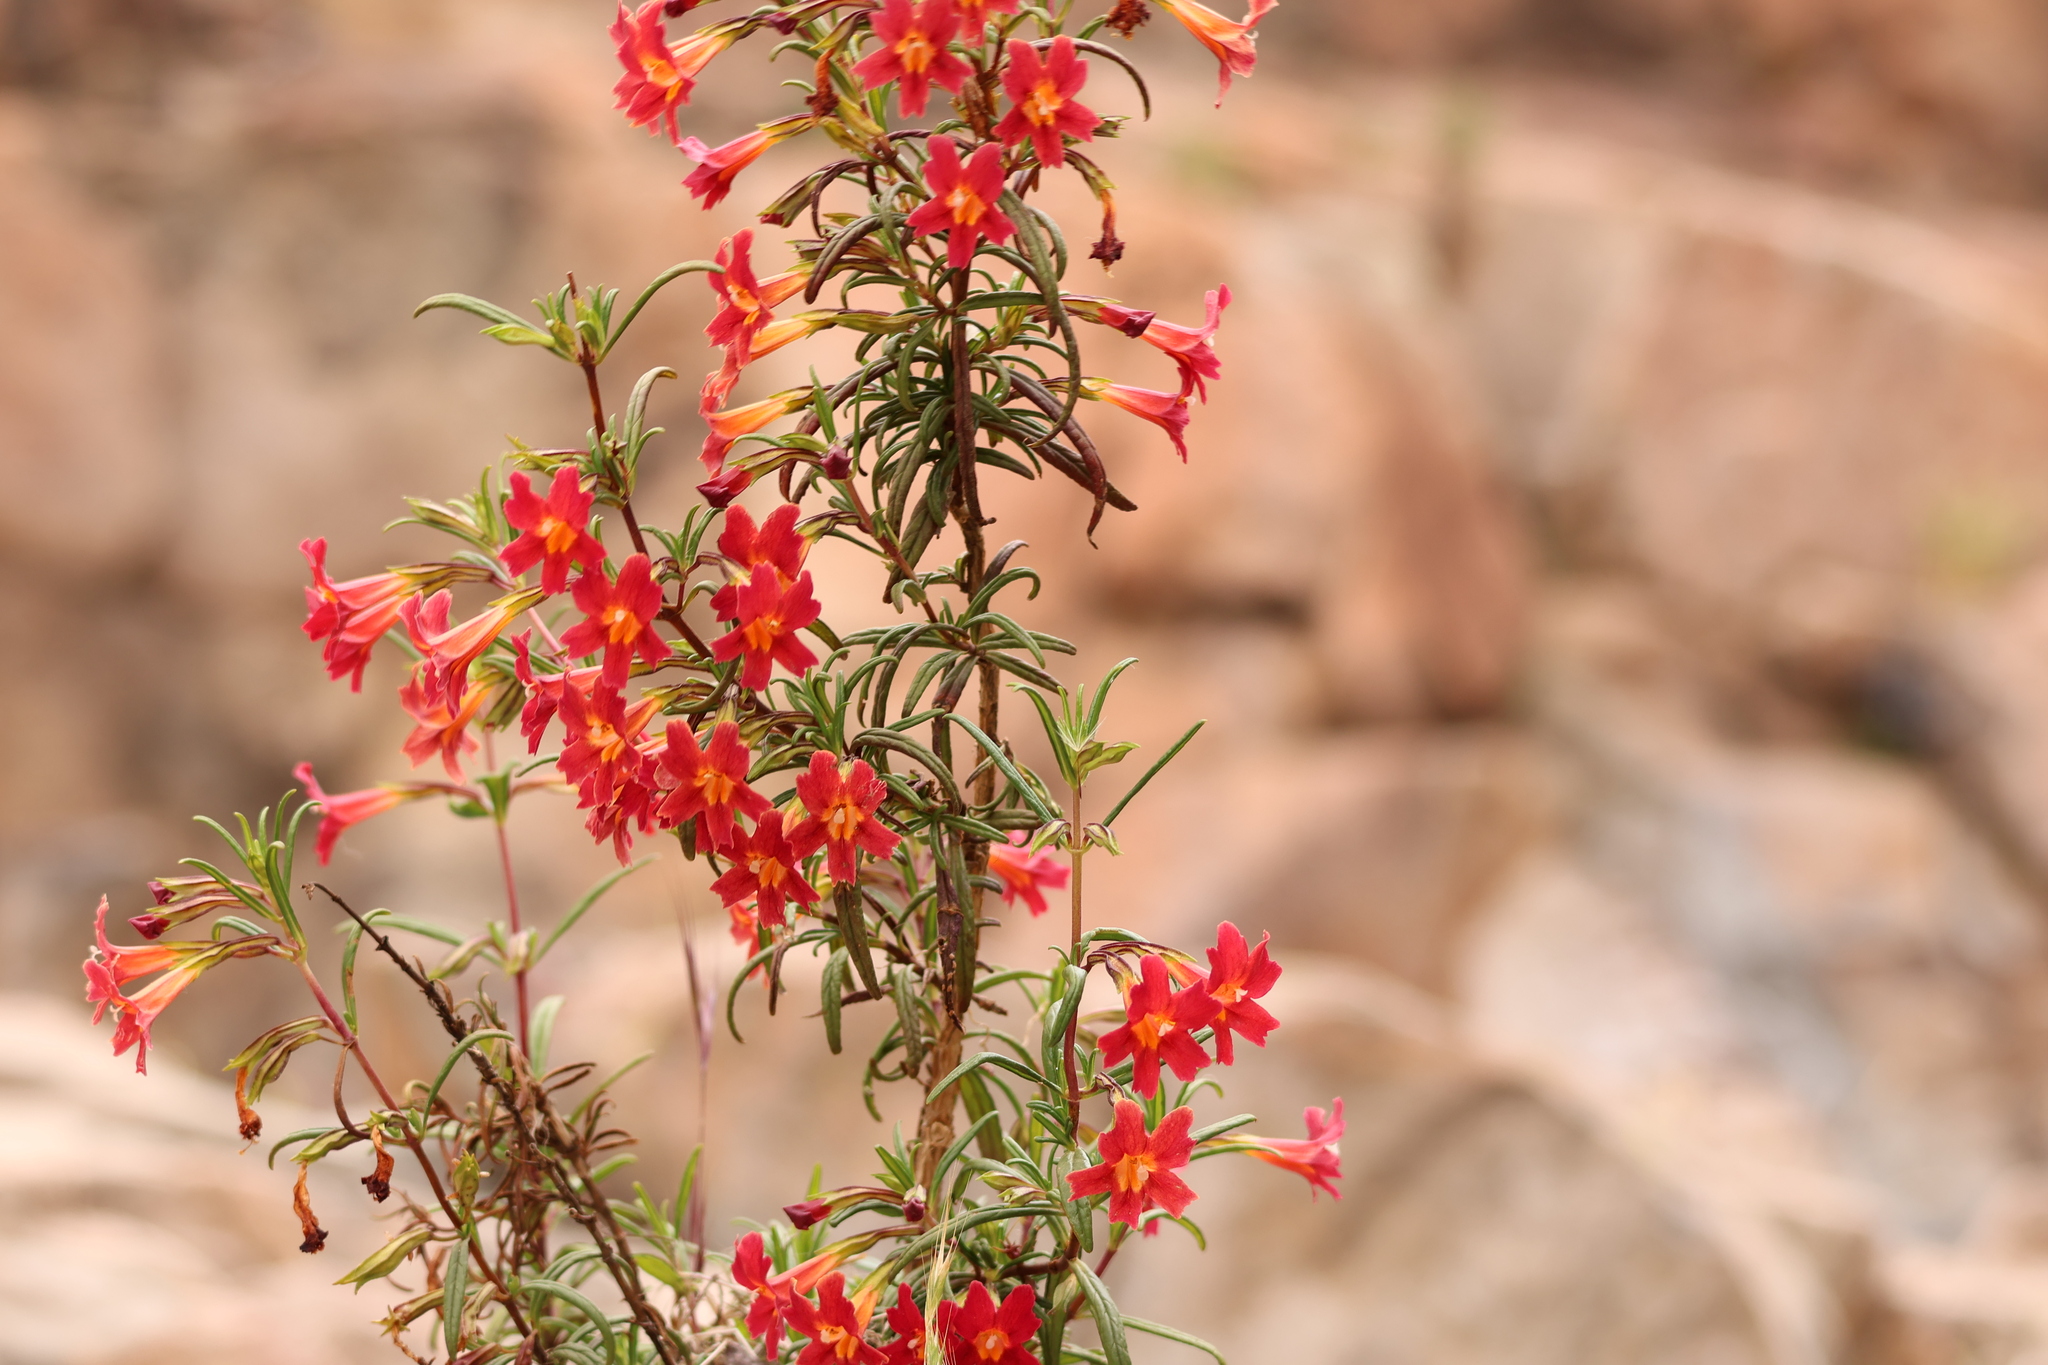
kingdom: Plantae
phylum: Tracheophyta
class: Magnoliopsida
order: Lamiales
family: Phrymaceae
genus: Diplacus
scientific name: Diplacus puniceus
